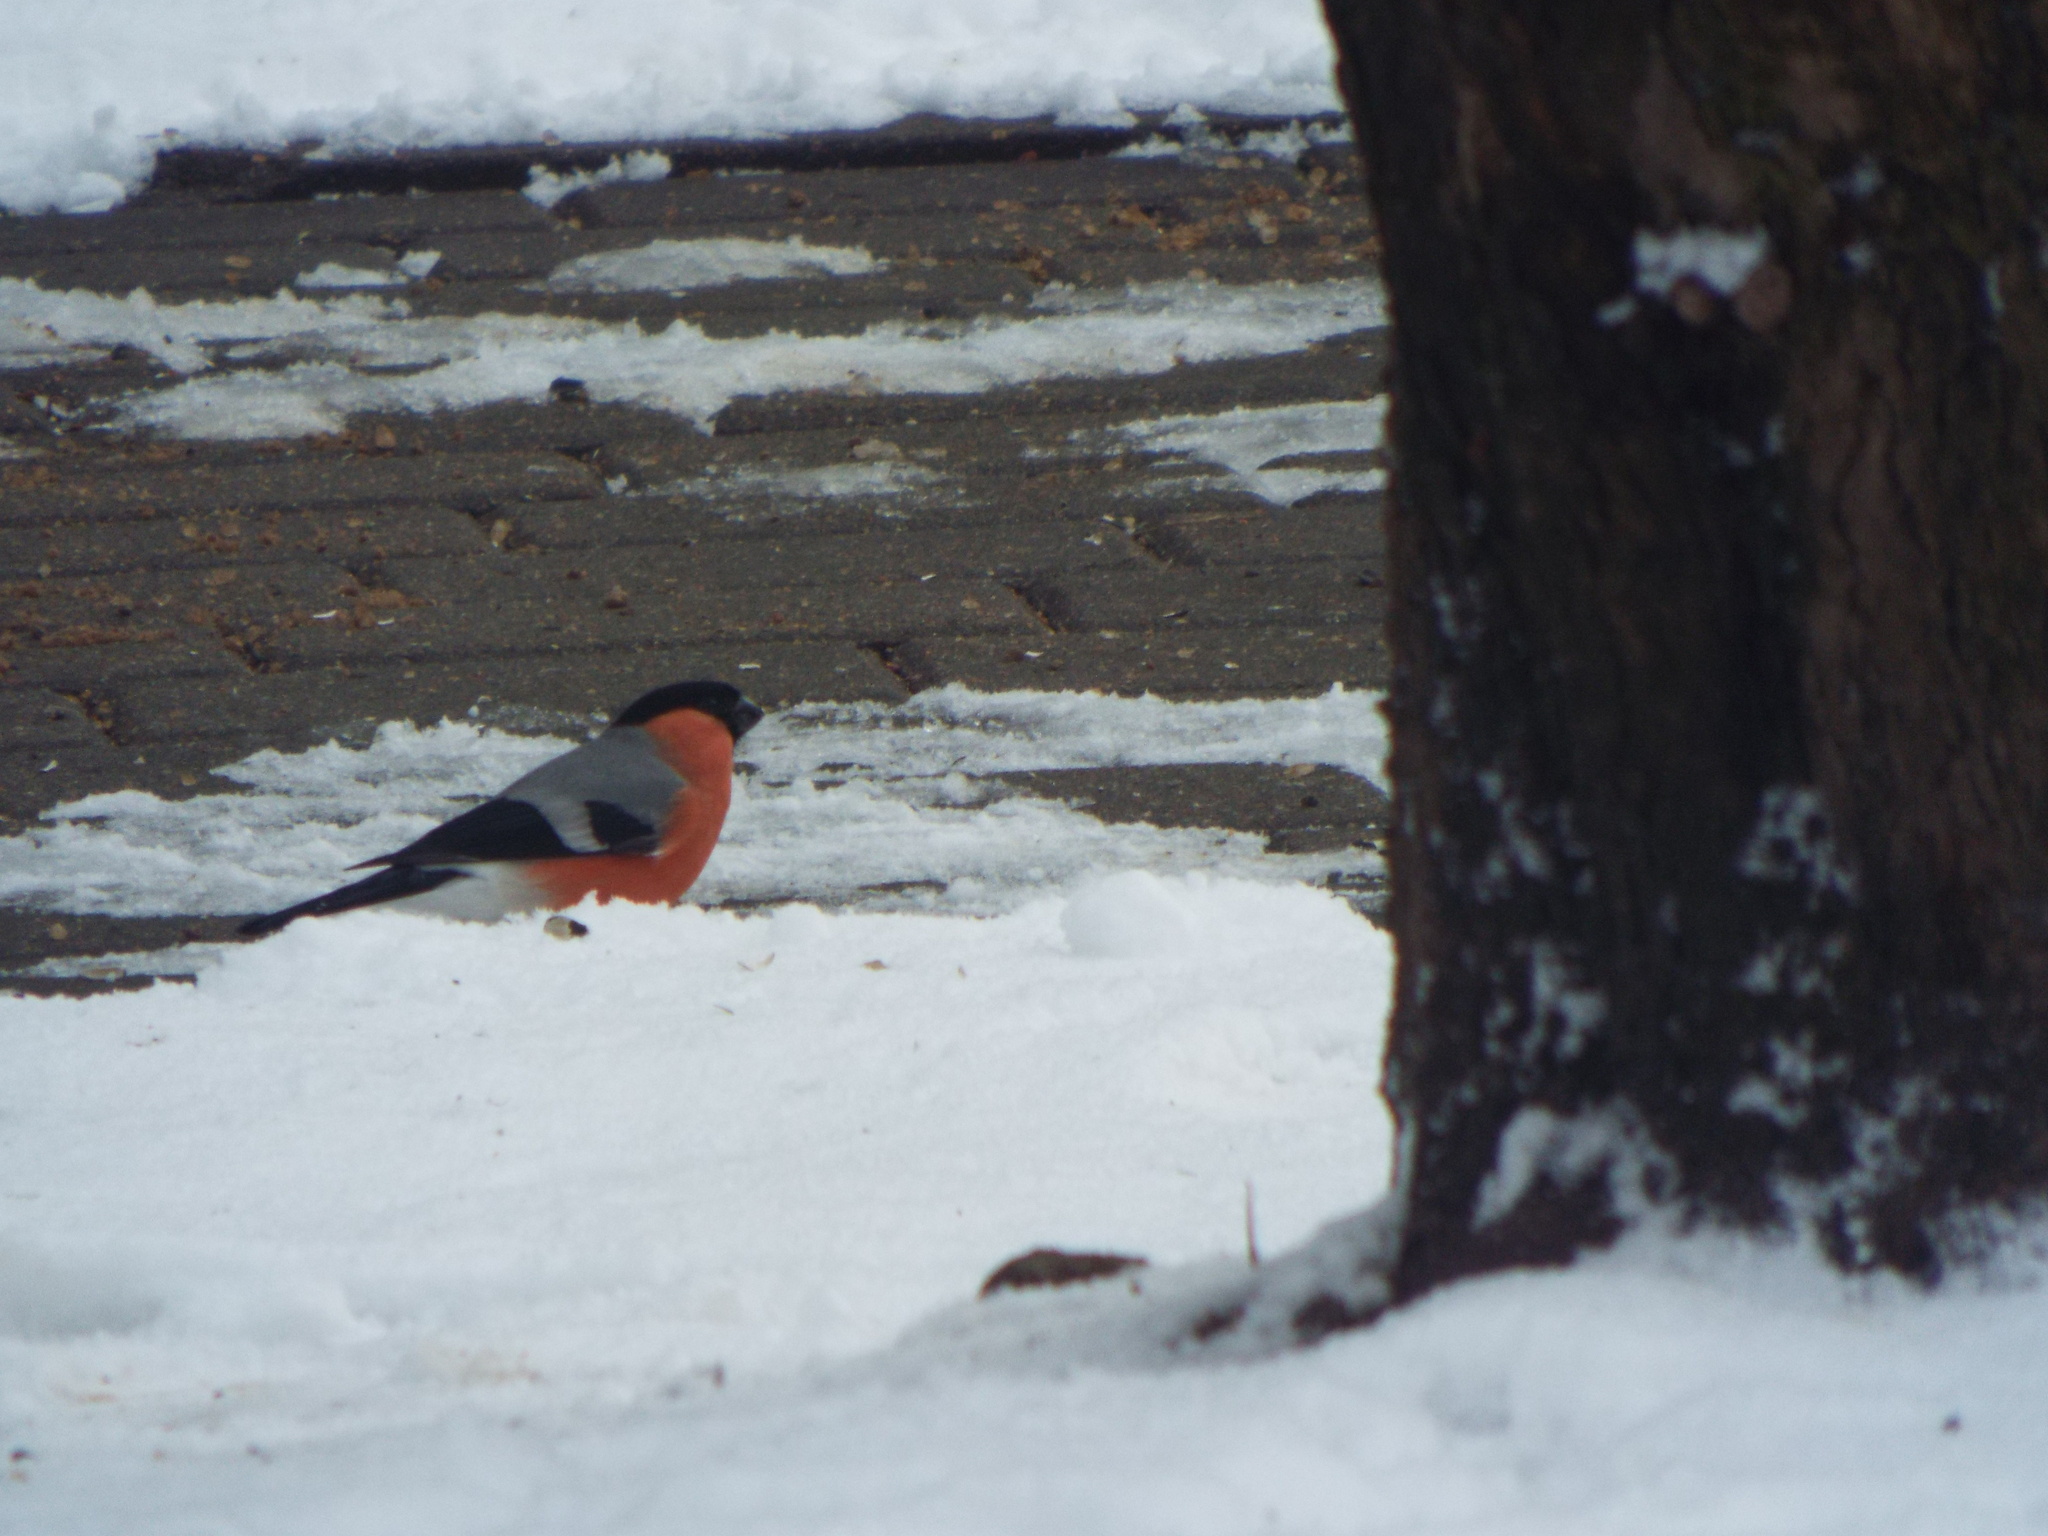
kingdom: Animalia
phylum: Chordata
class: Aves
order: Passeriformes
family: Fringillidae
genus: Pyrrhula
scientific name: Pyrrhula pyrrhula
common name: Eurasian bullfinch
